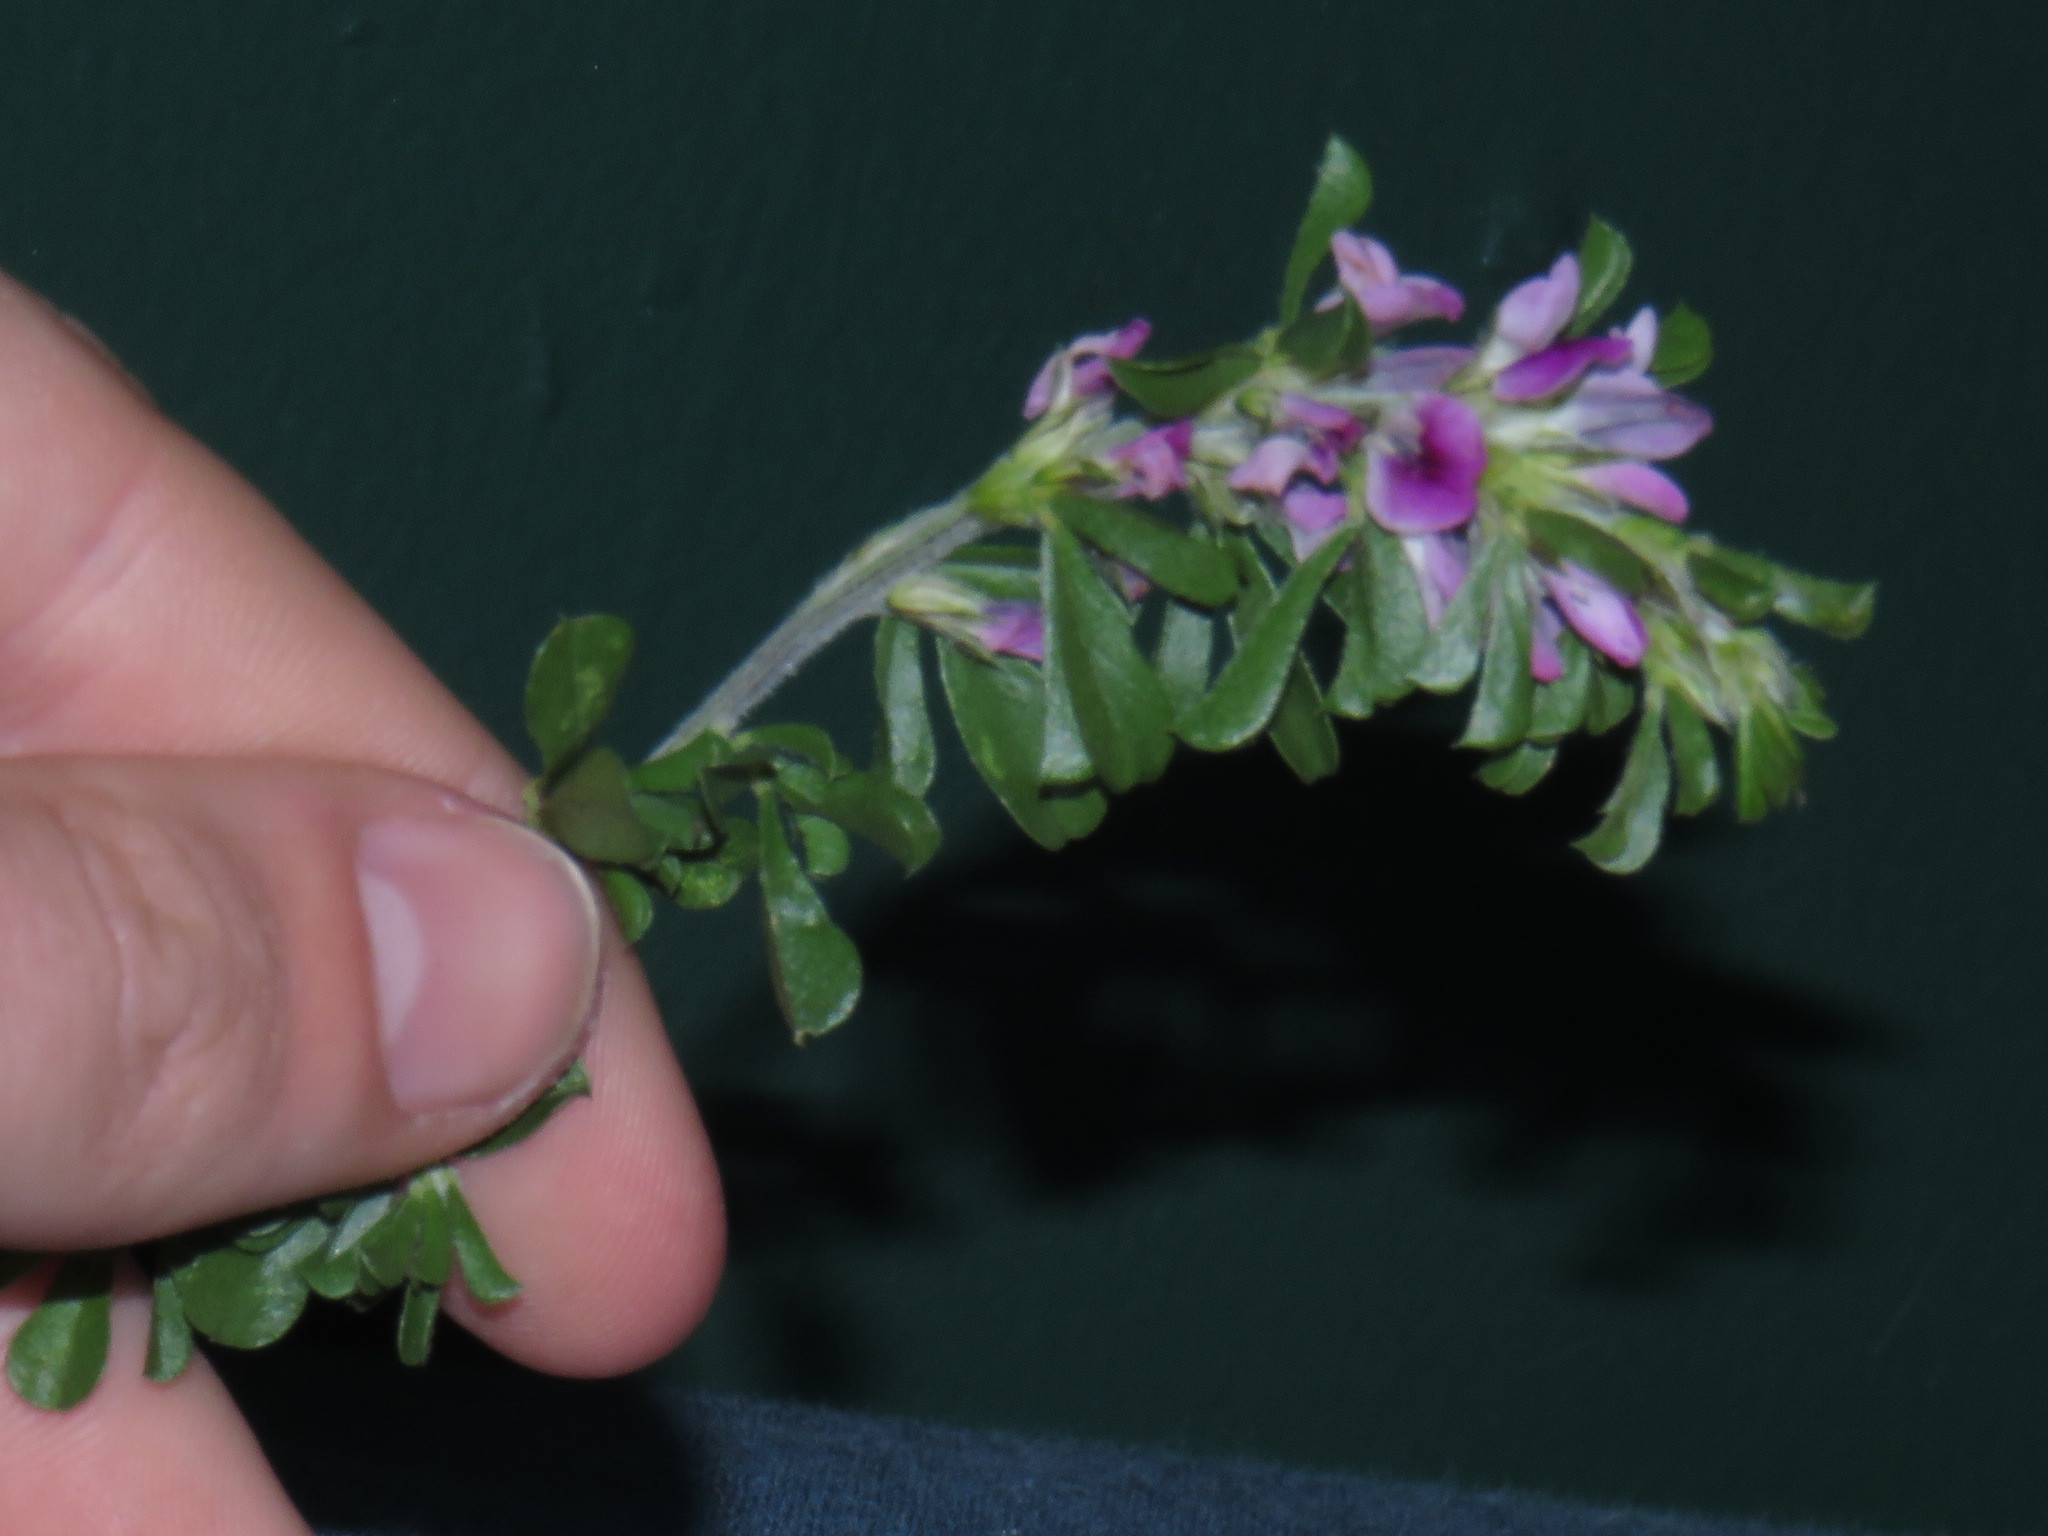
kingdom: Plantae
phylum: Tracheophyta
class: Magnoliopsida
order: Fabales
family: Fabaceae
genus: Psoralea
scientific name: Psoralea
